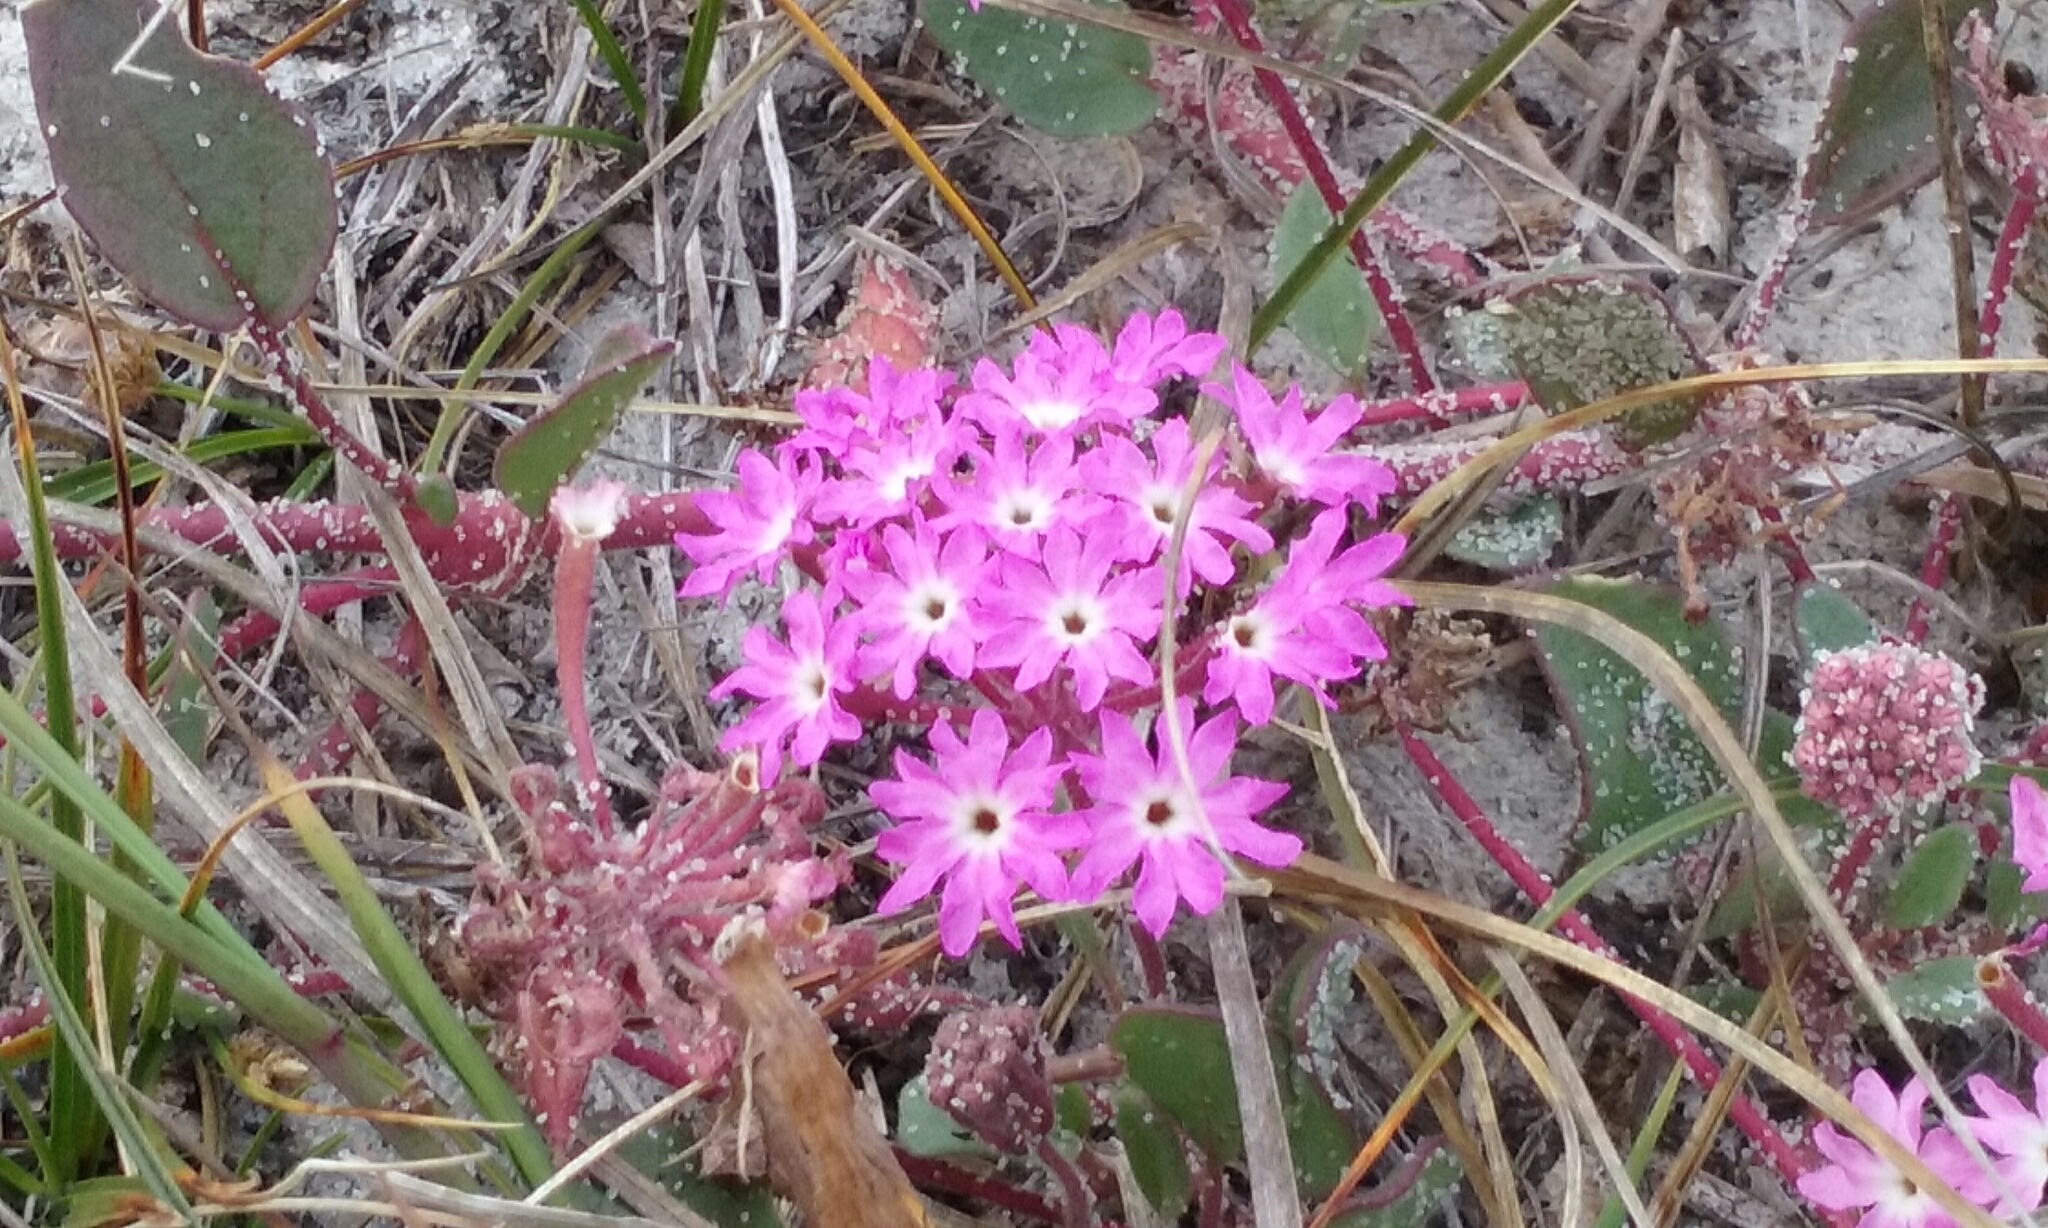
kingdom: Plantae
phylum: Tracheophyta
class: Magnoliopsida
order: Caryophyllales
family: Nyctaginaceae
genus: Abronia
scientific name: Abronia umbellata
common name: Sand-verbena
